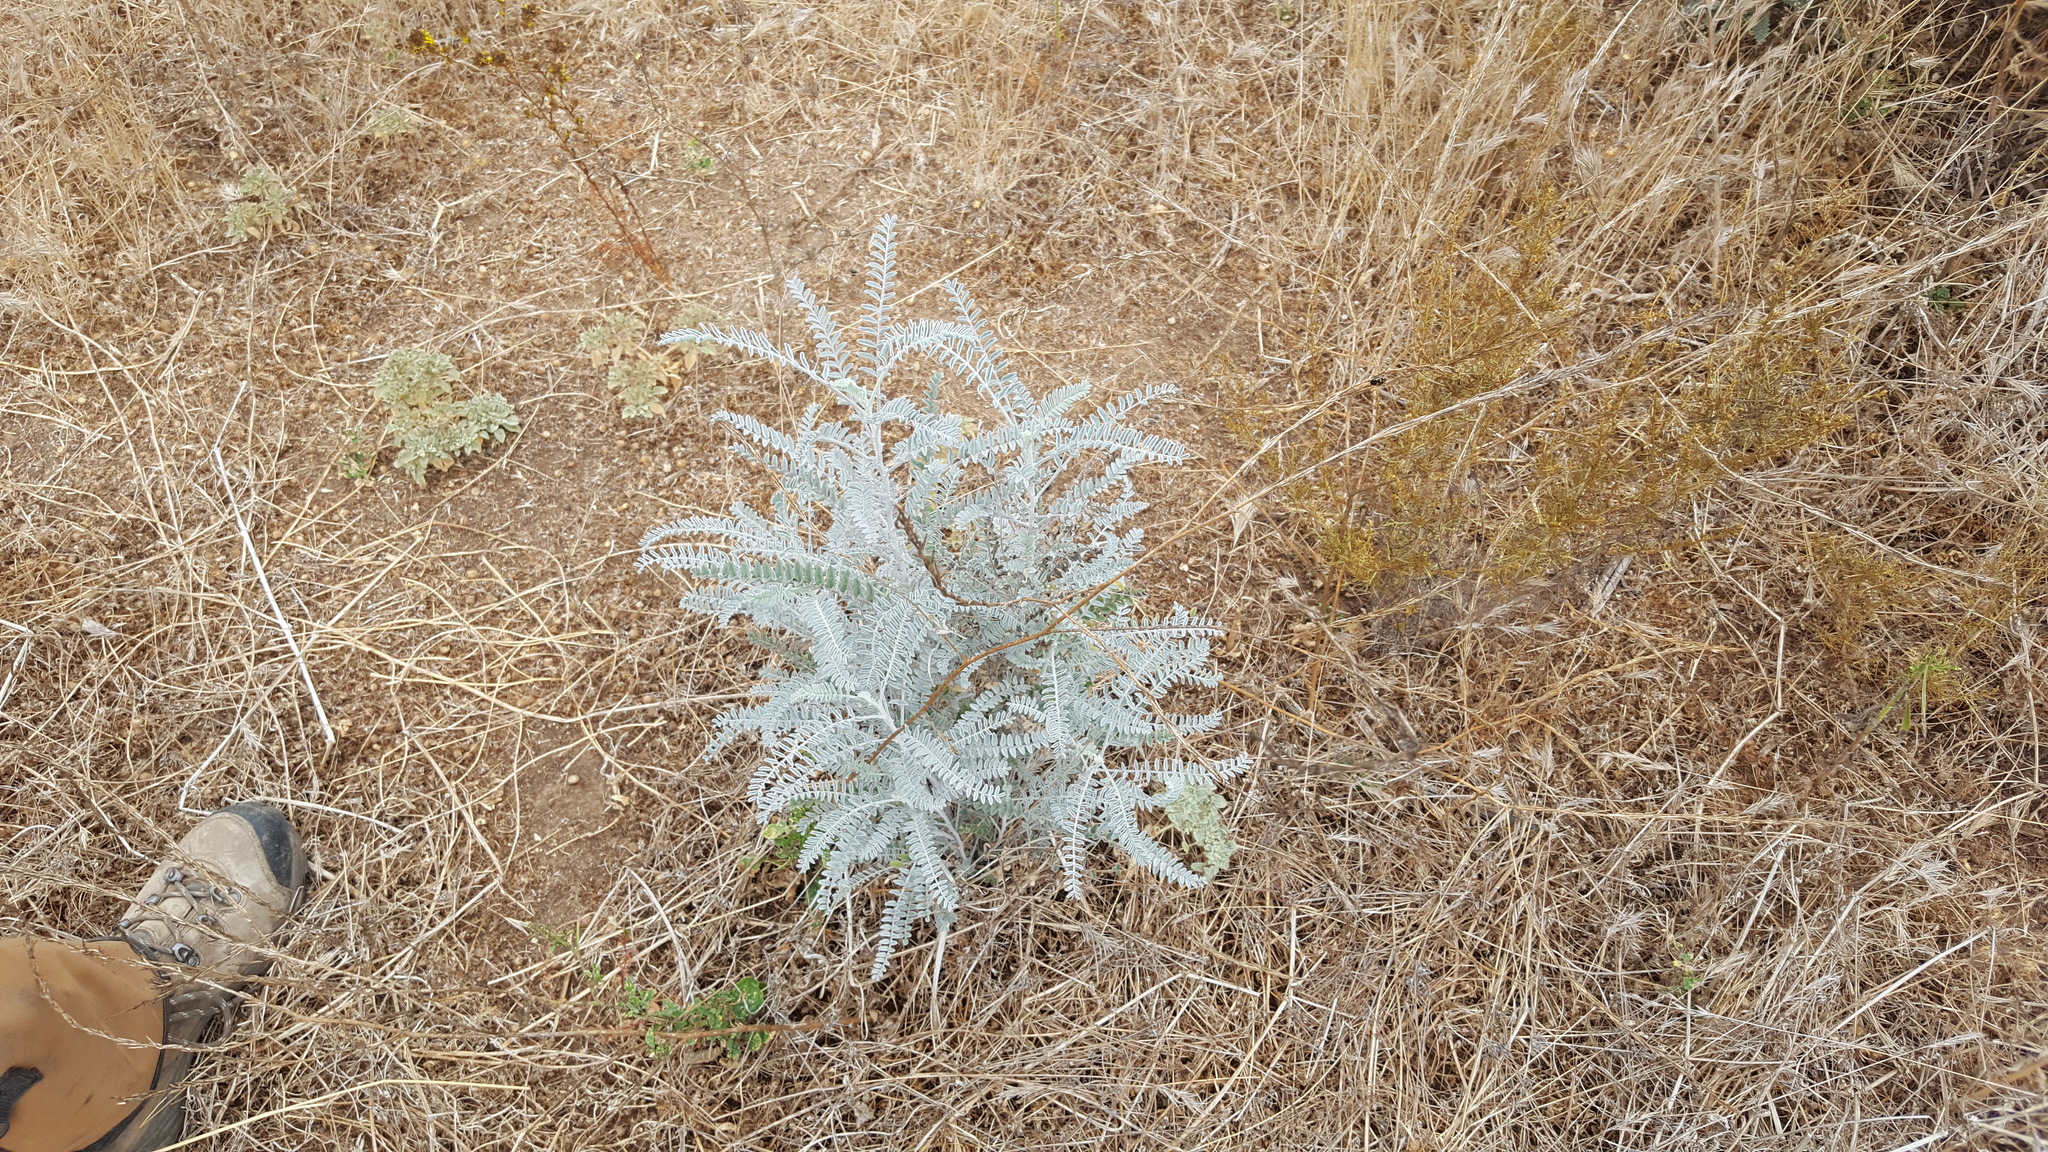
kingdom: Plantae
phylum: Tracheophyta
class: Magnoliopsida
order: Fabales
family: Fabaceae
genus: Astragalus
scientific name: Astragalus trichopodus
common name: Santa barbara milk-vetch
